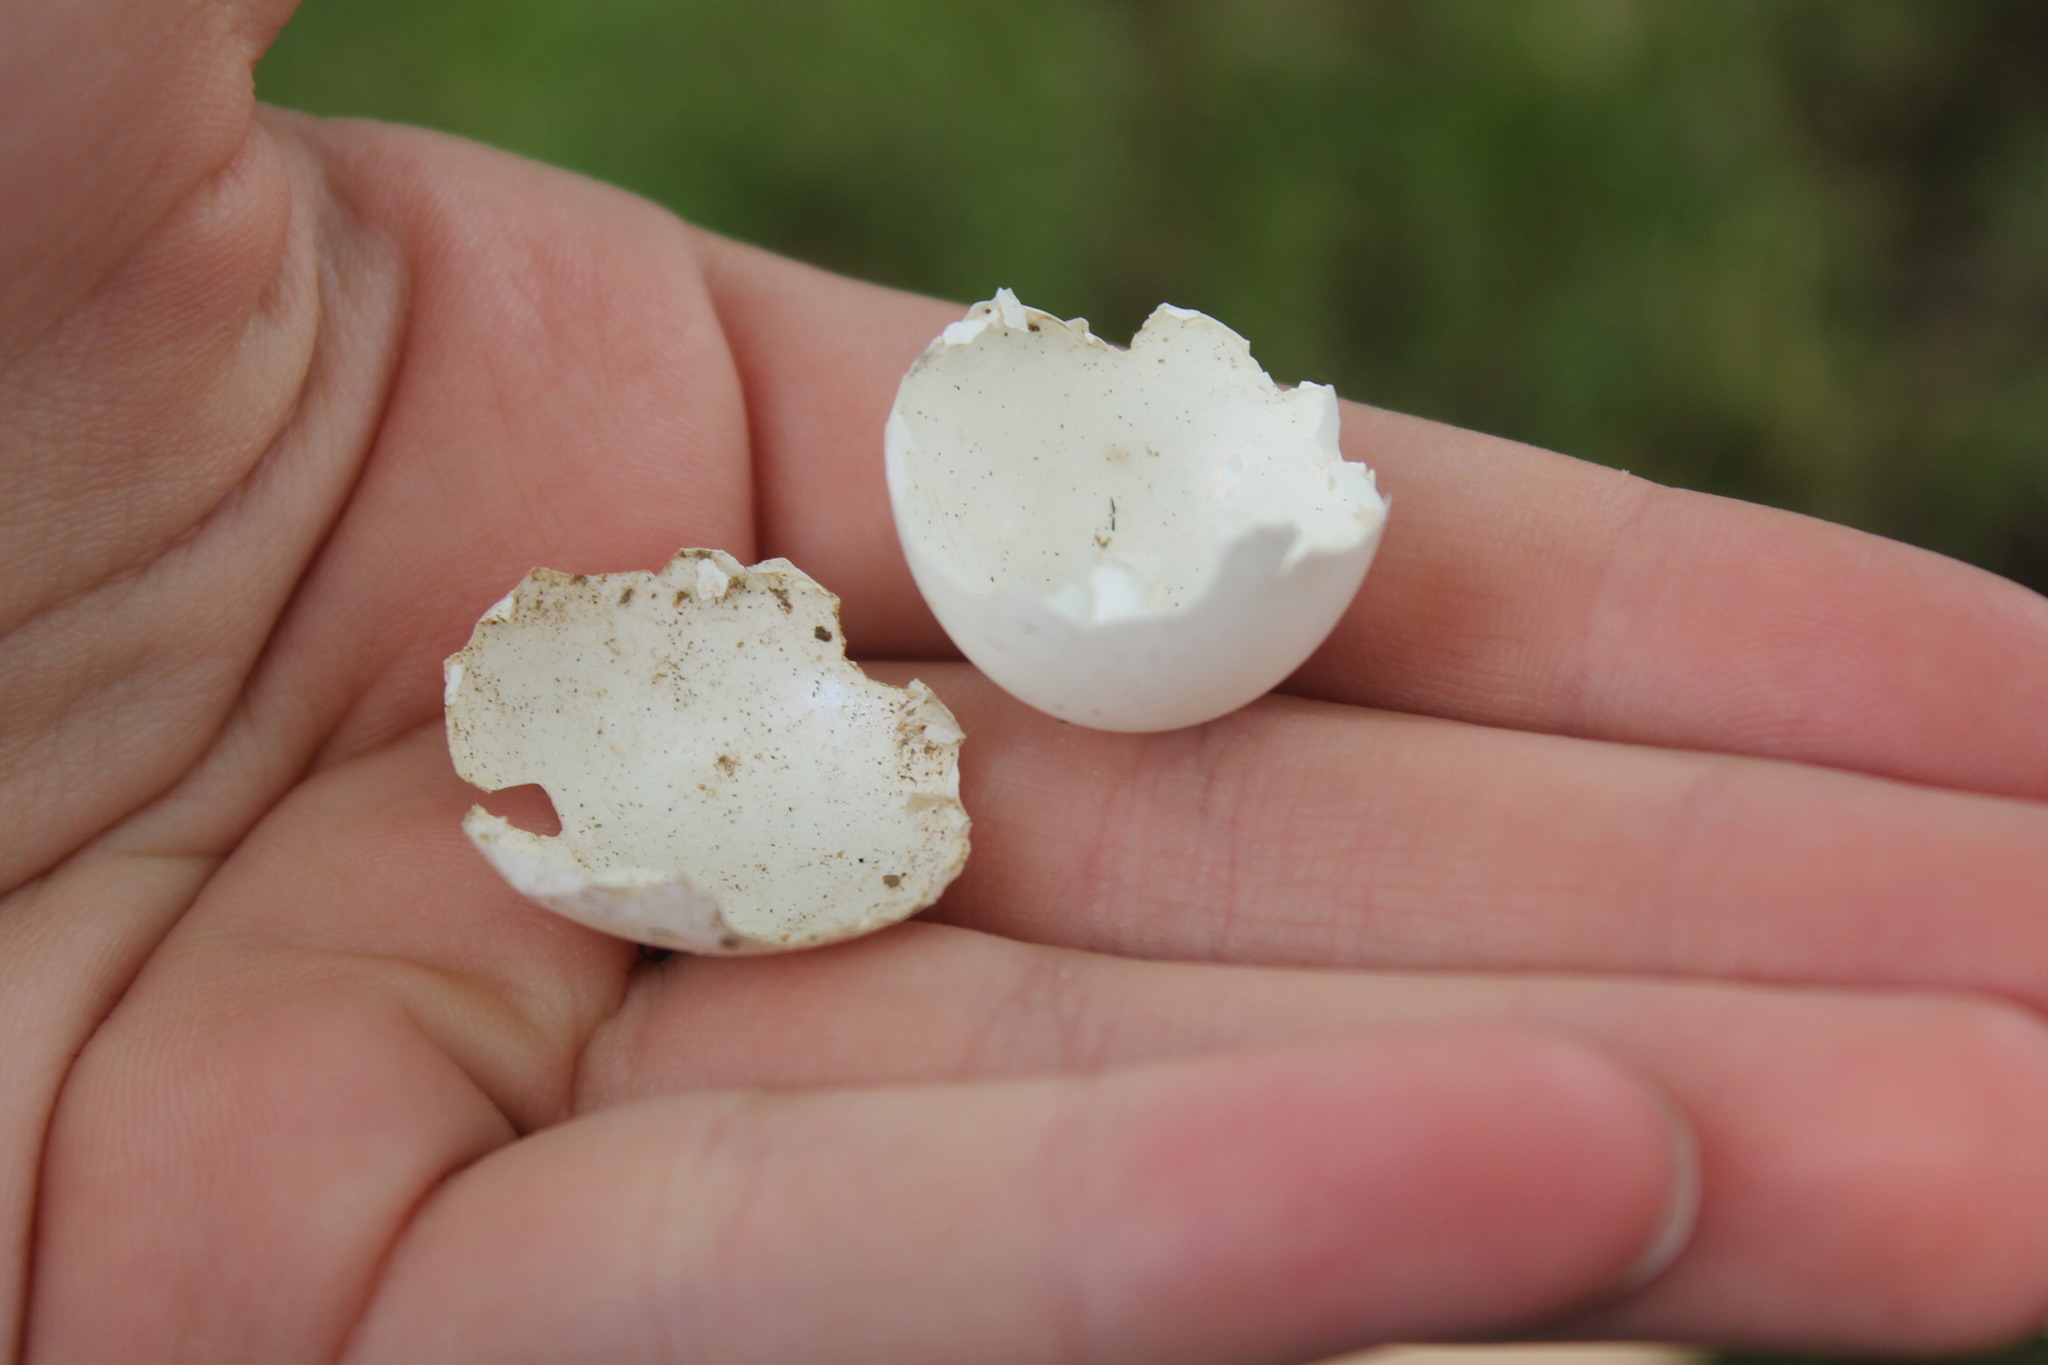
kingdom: Animalia
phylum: Chordata
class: Aves
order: Columbiformes
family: Columbidae
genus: Zenaida
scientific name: Zenaida macroura
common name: Mourning dove
